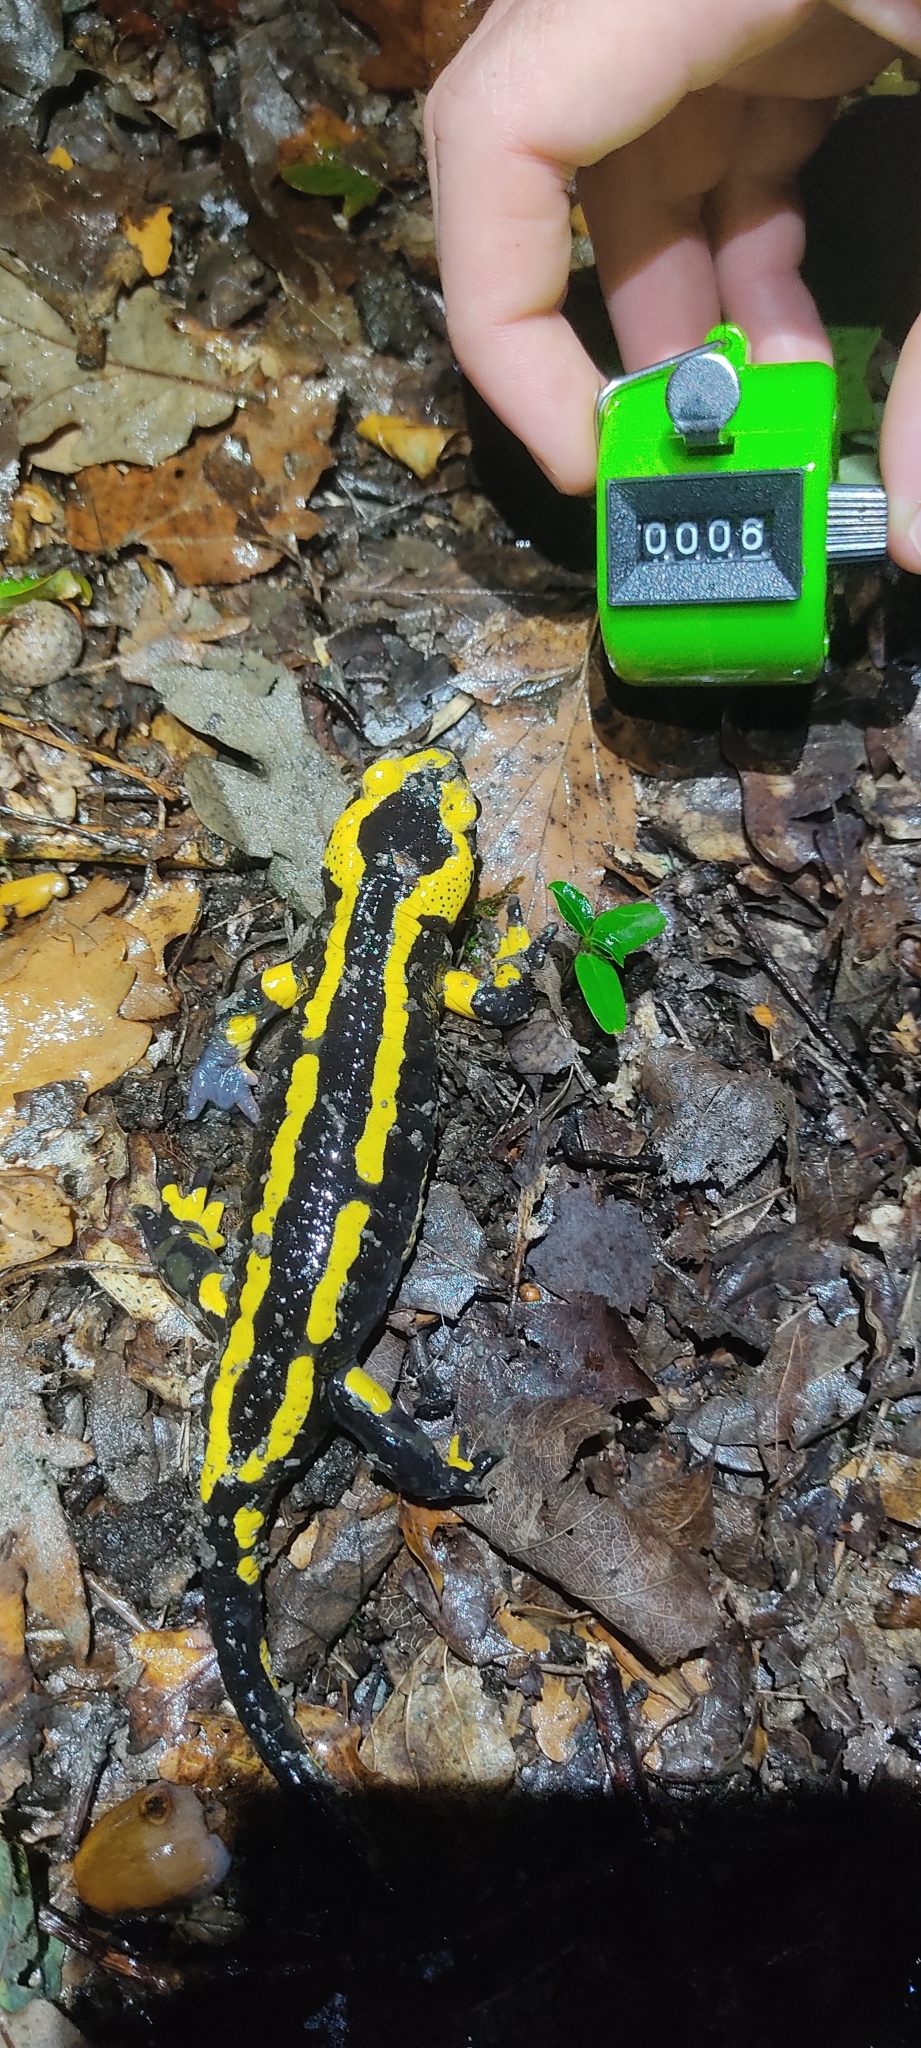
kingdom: Animalia
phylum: Chordata
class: Amphibia
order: Caudata
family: Salamandridae
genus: Salamandra
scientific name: Salamandra salamandra
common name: Fire salamander
